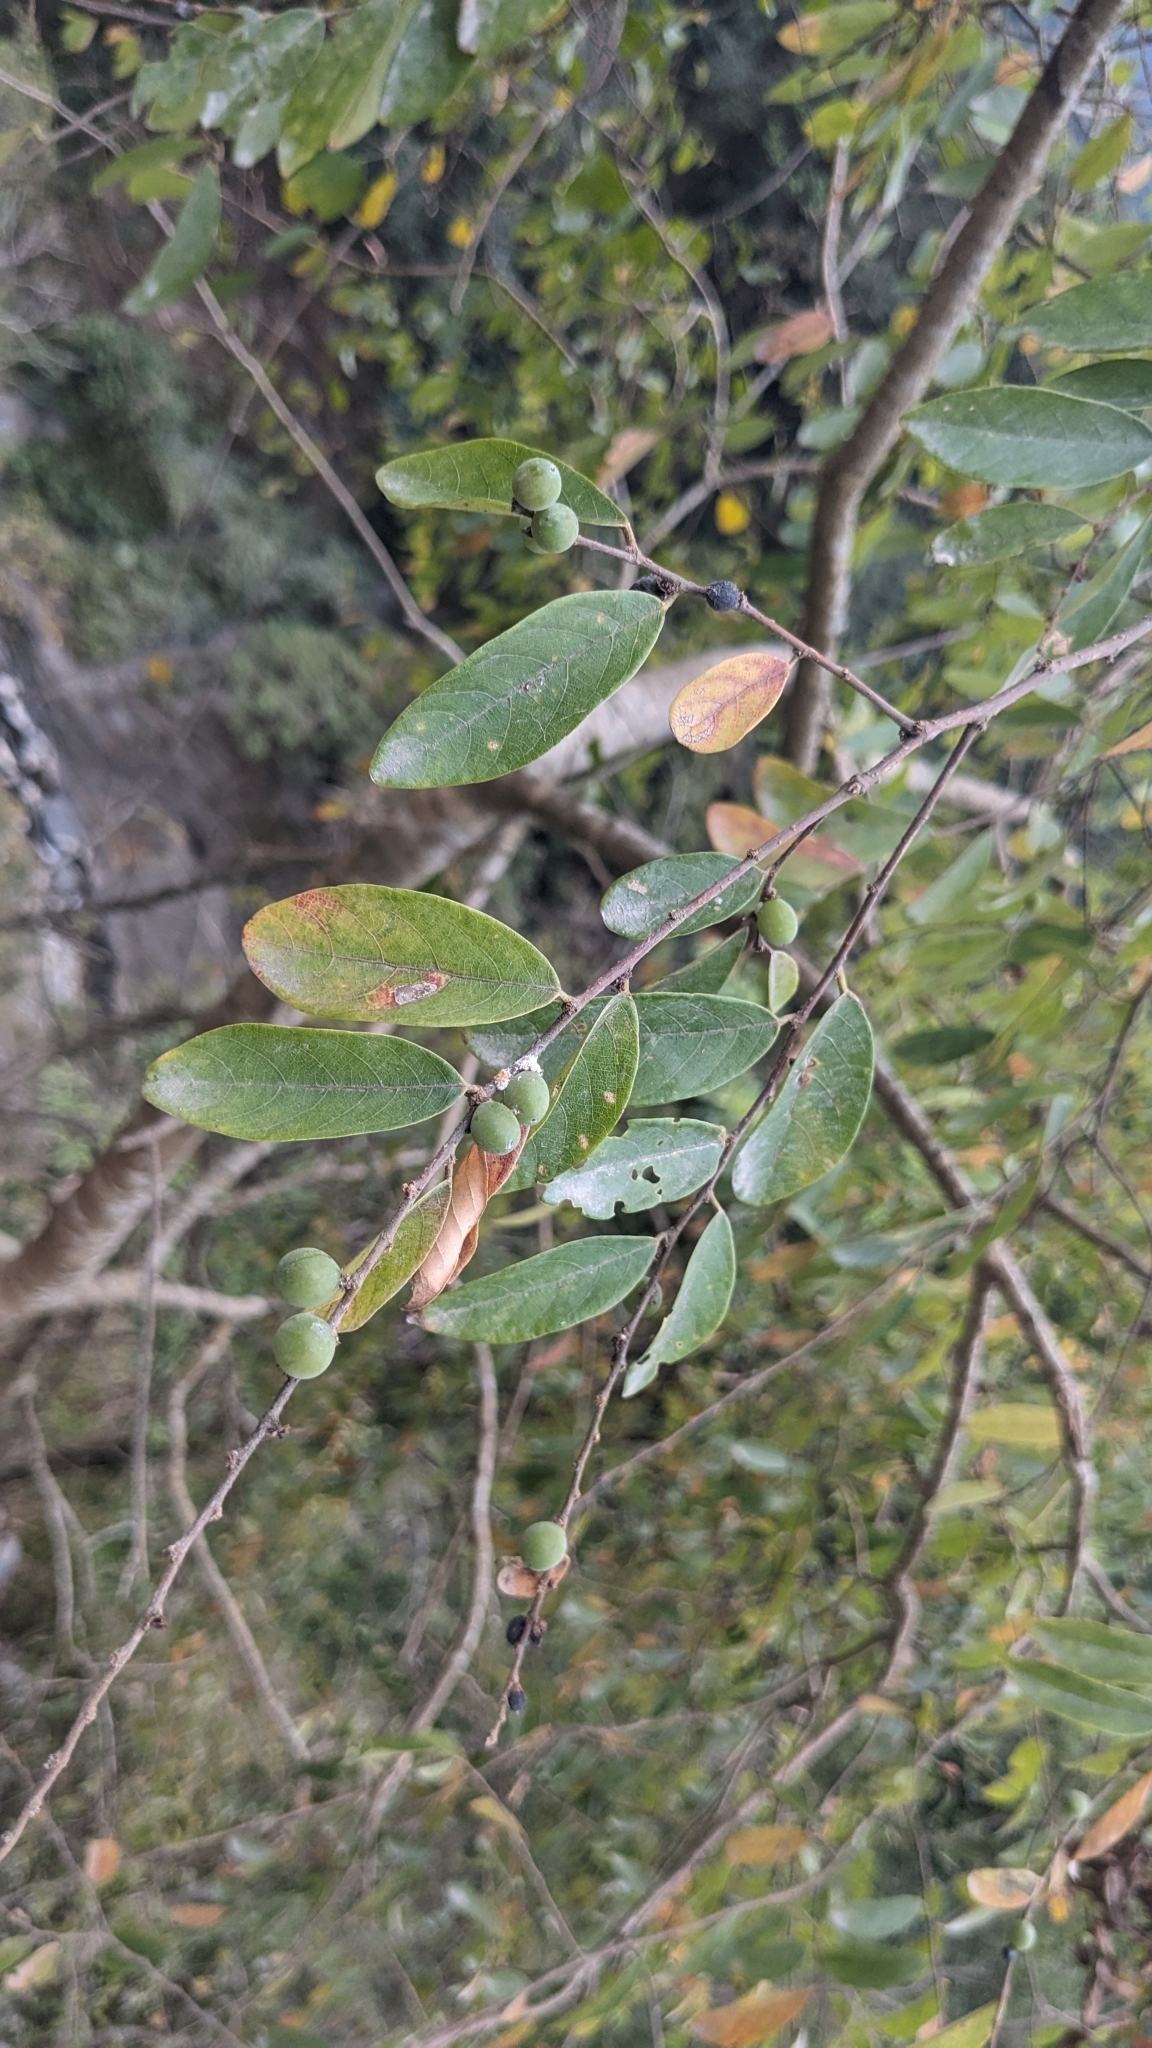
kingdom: Plantae
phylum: Tracheophyta
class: Magnoliopsida
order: Malpighiales
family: Phyllanthaceae
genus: Bridelia
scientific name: Bridelia tomentosa
